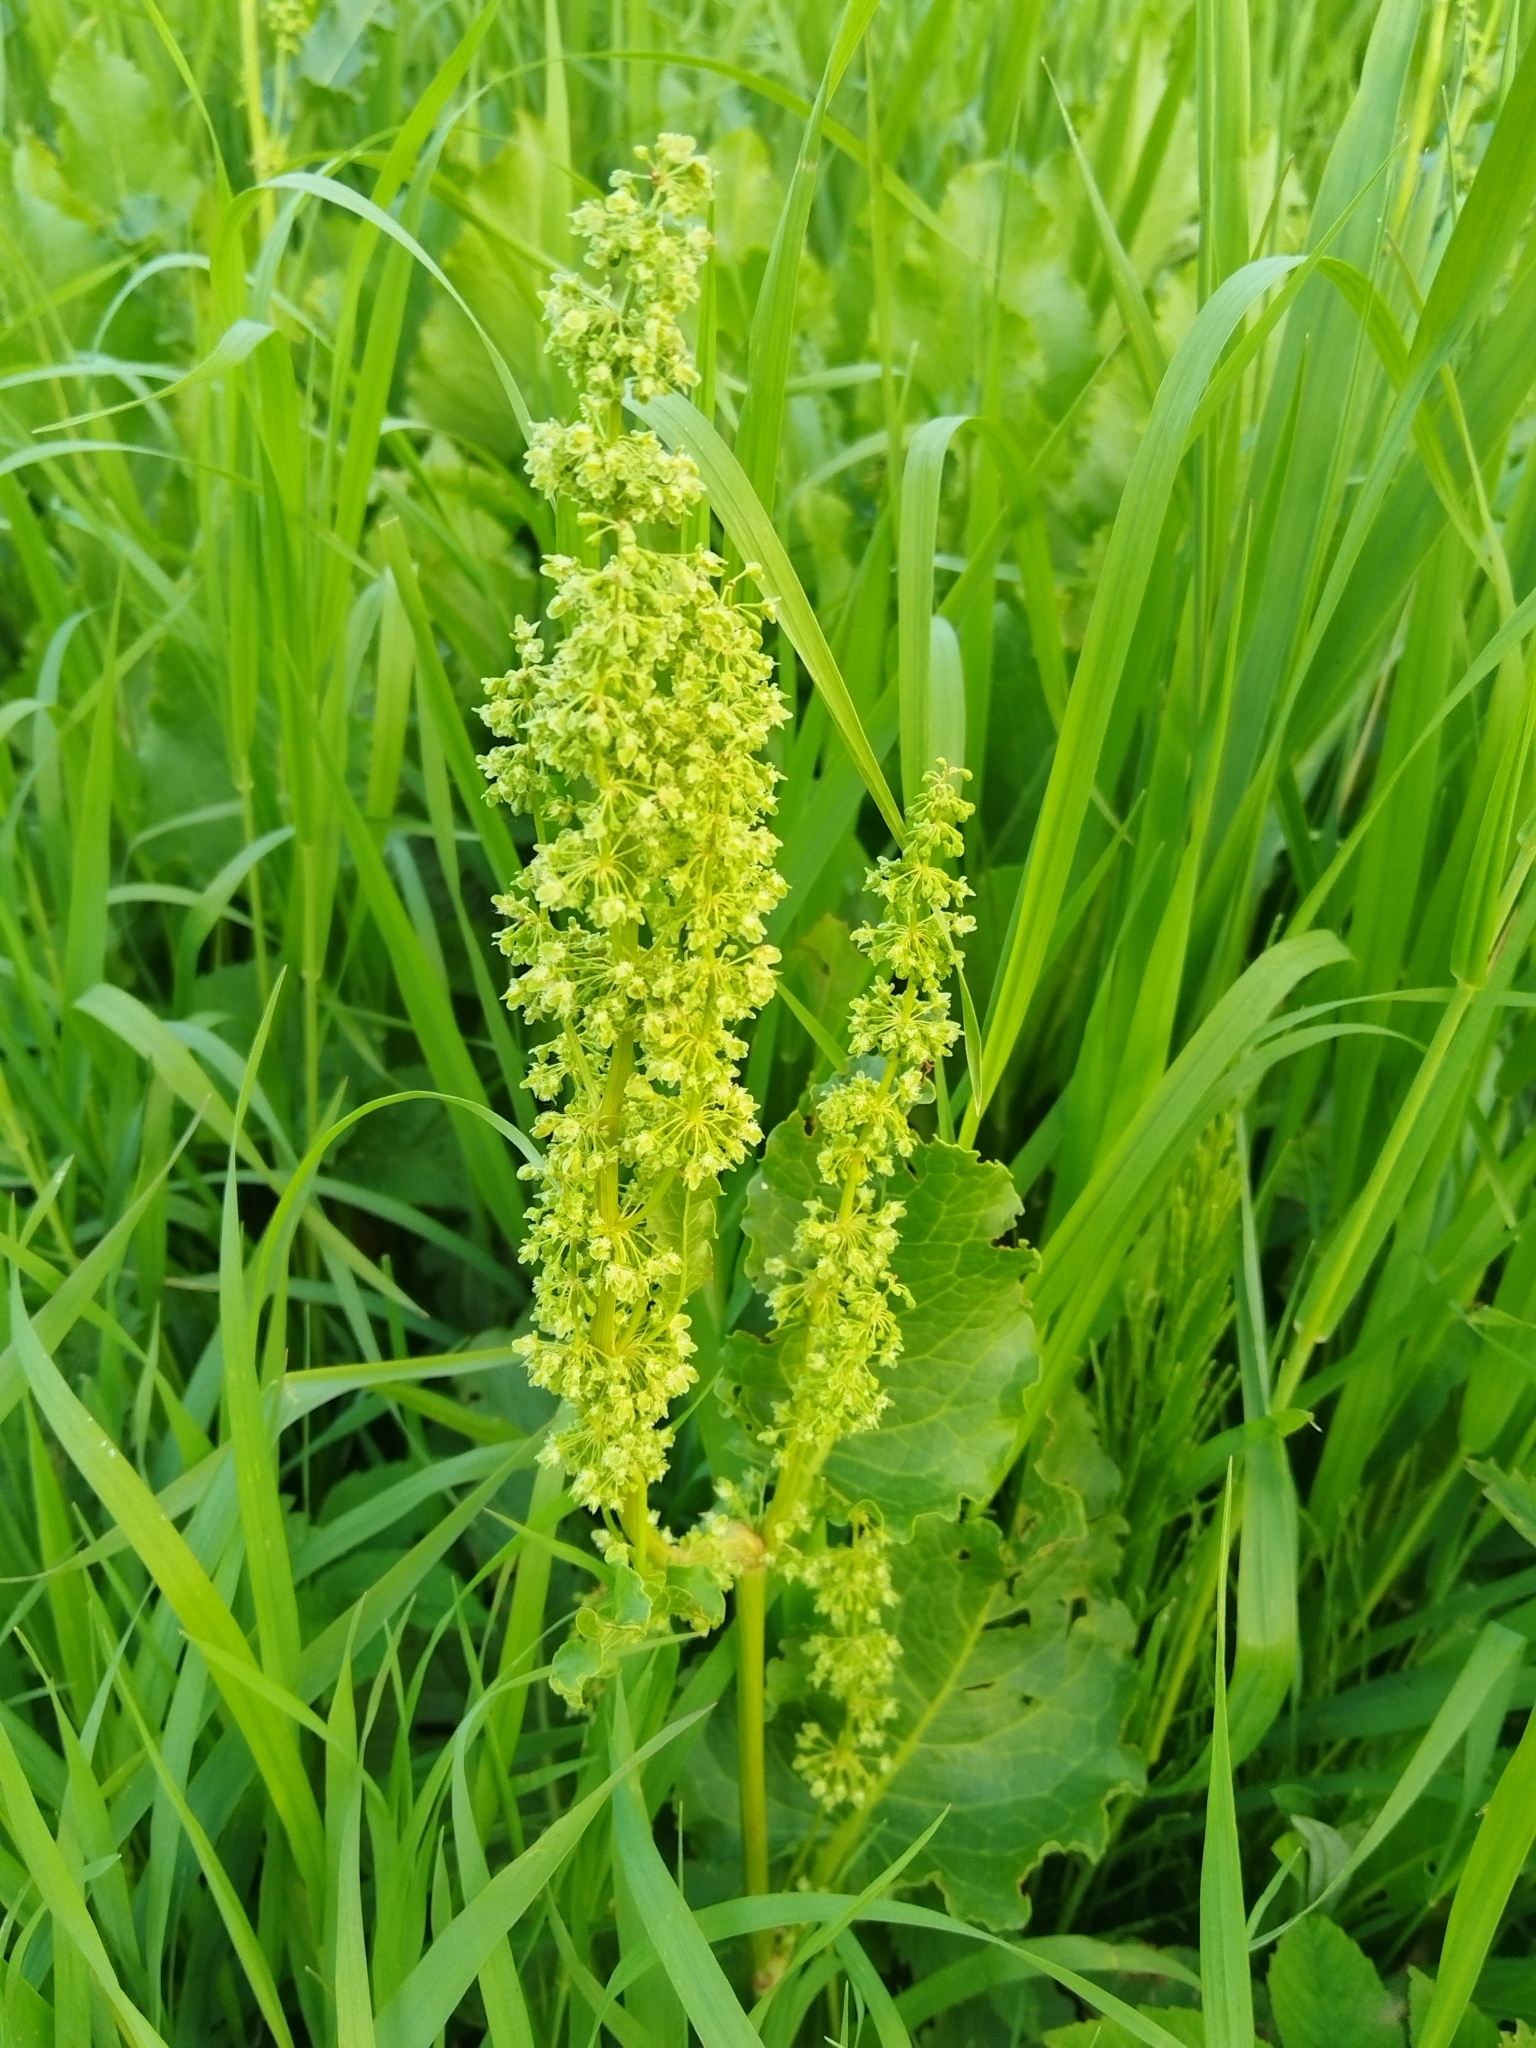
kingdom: Plantae
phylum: Tracheophyta
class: Magnoliopsida
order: Caryophyllales
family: Polygonaceae
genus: Rumex
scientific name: Rumex confertus
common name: Russian dock
